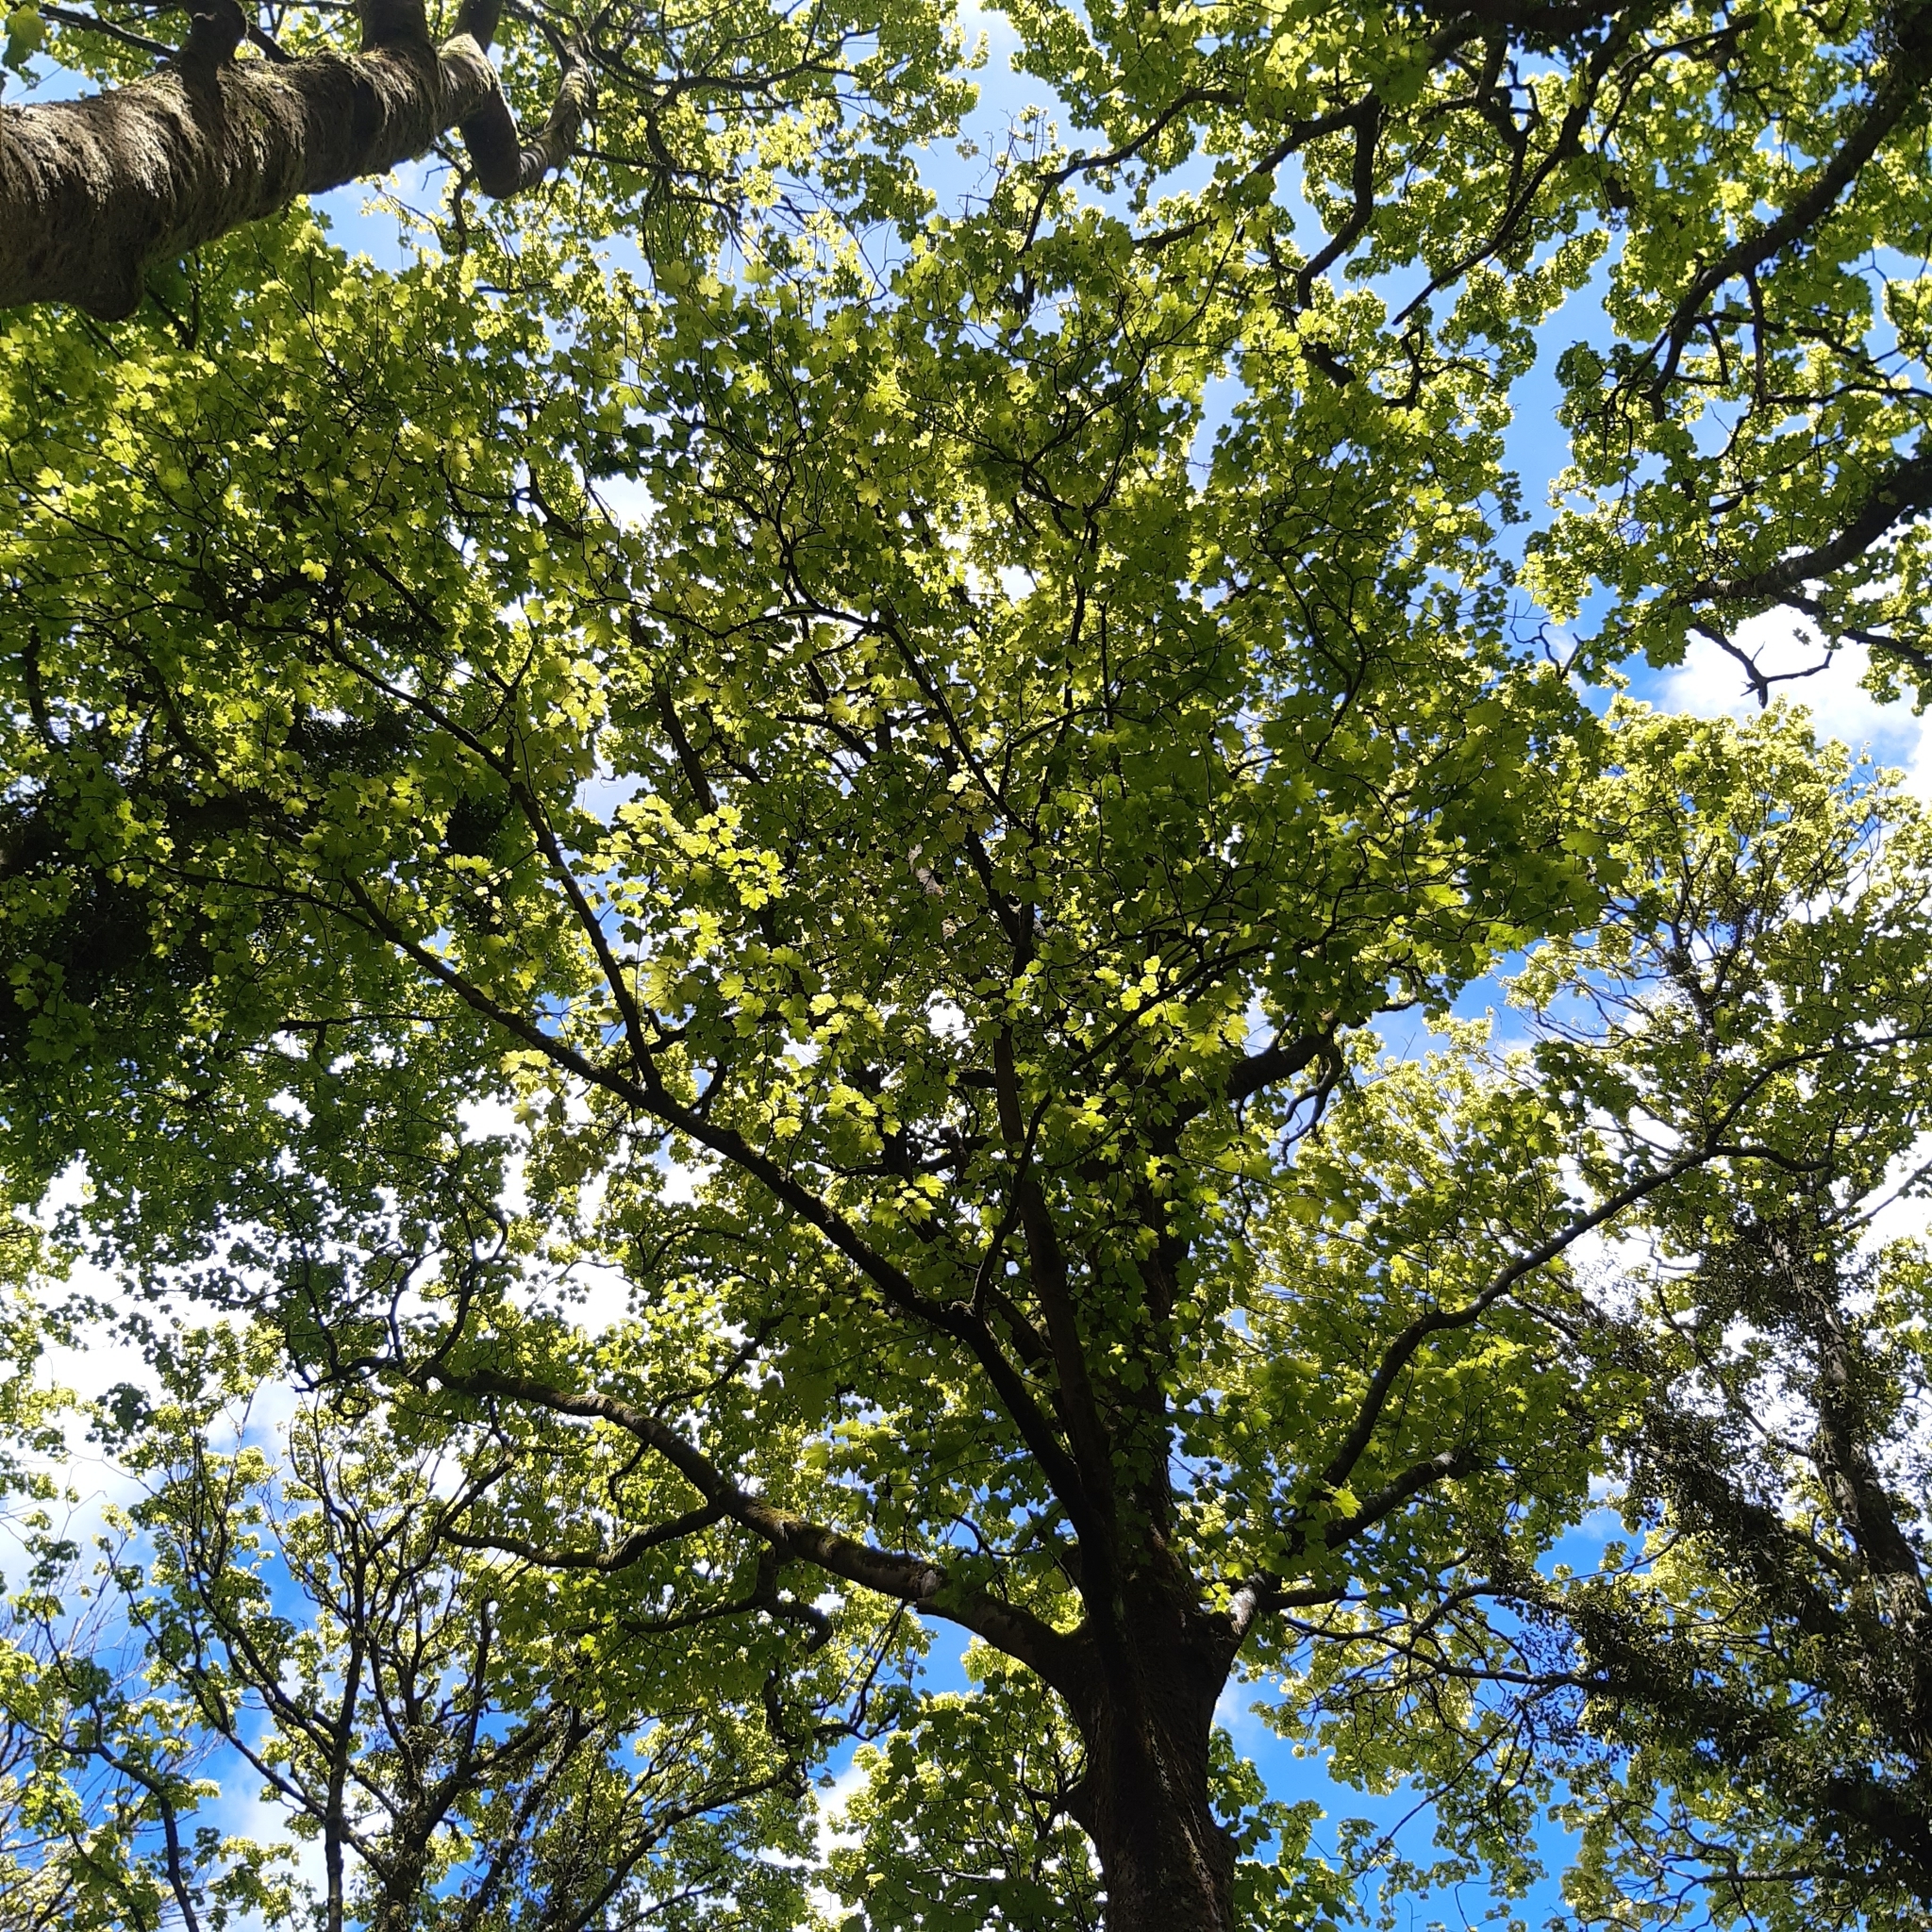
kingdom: Plantae
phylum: Tracheophyta
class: Magnoliopsida
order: Sapindales
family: Sapindaceae
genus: Acer
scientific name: Acer pseudoplatanus
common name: Sycamore
